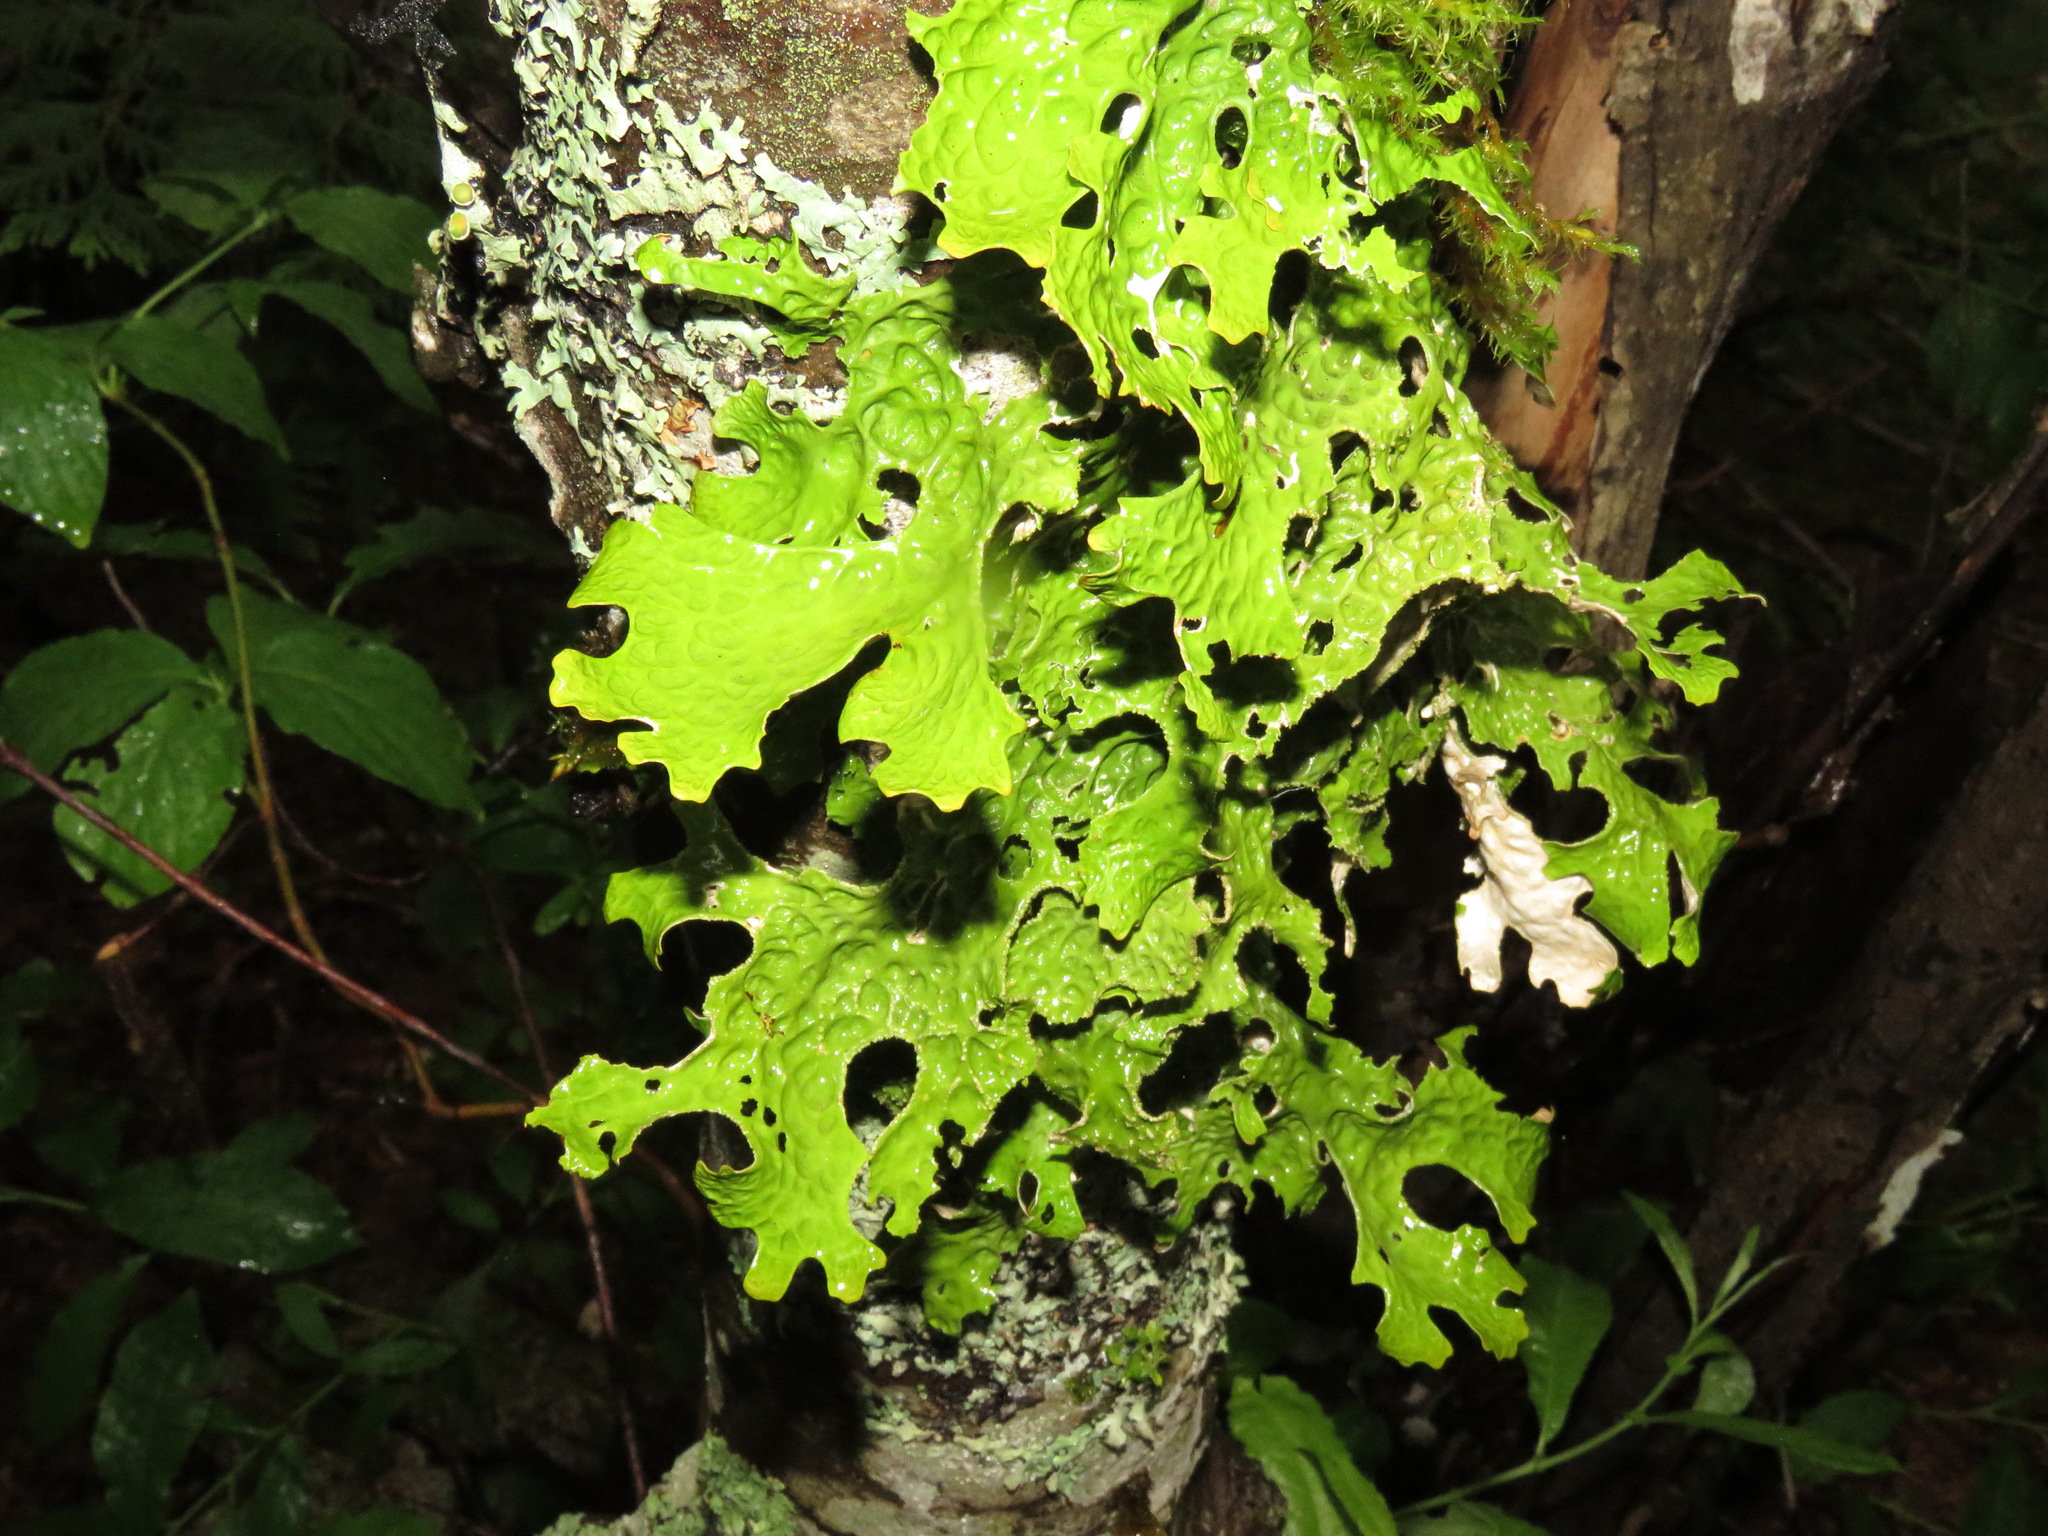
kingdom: Fungi
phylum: Ascomycota
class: Lecanoromycetes
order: Peltigerales
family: Lobariaceae
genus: Lobaria
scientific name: Lobaria pulmonaria
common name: Lungwort
